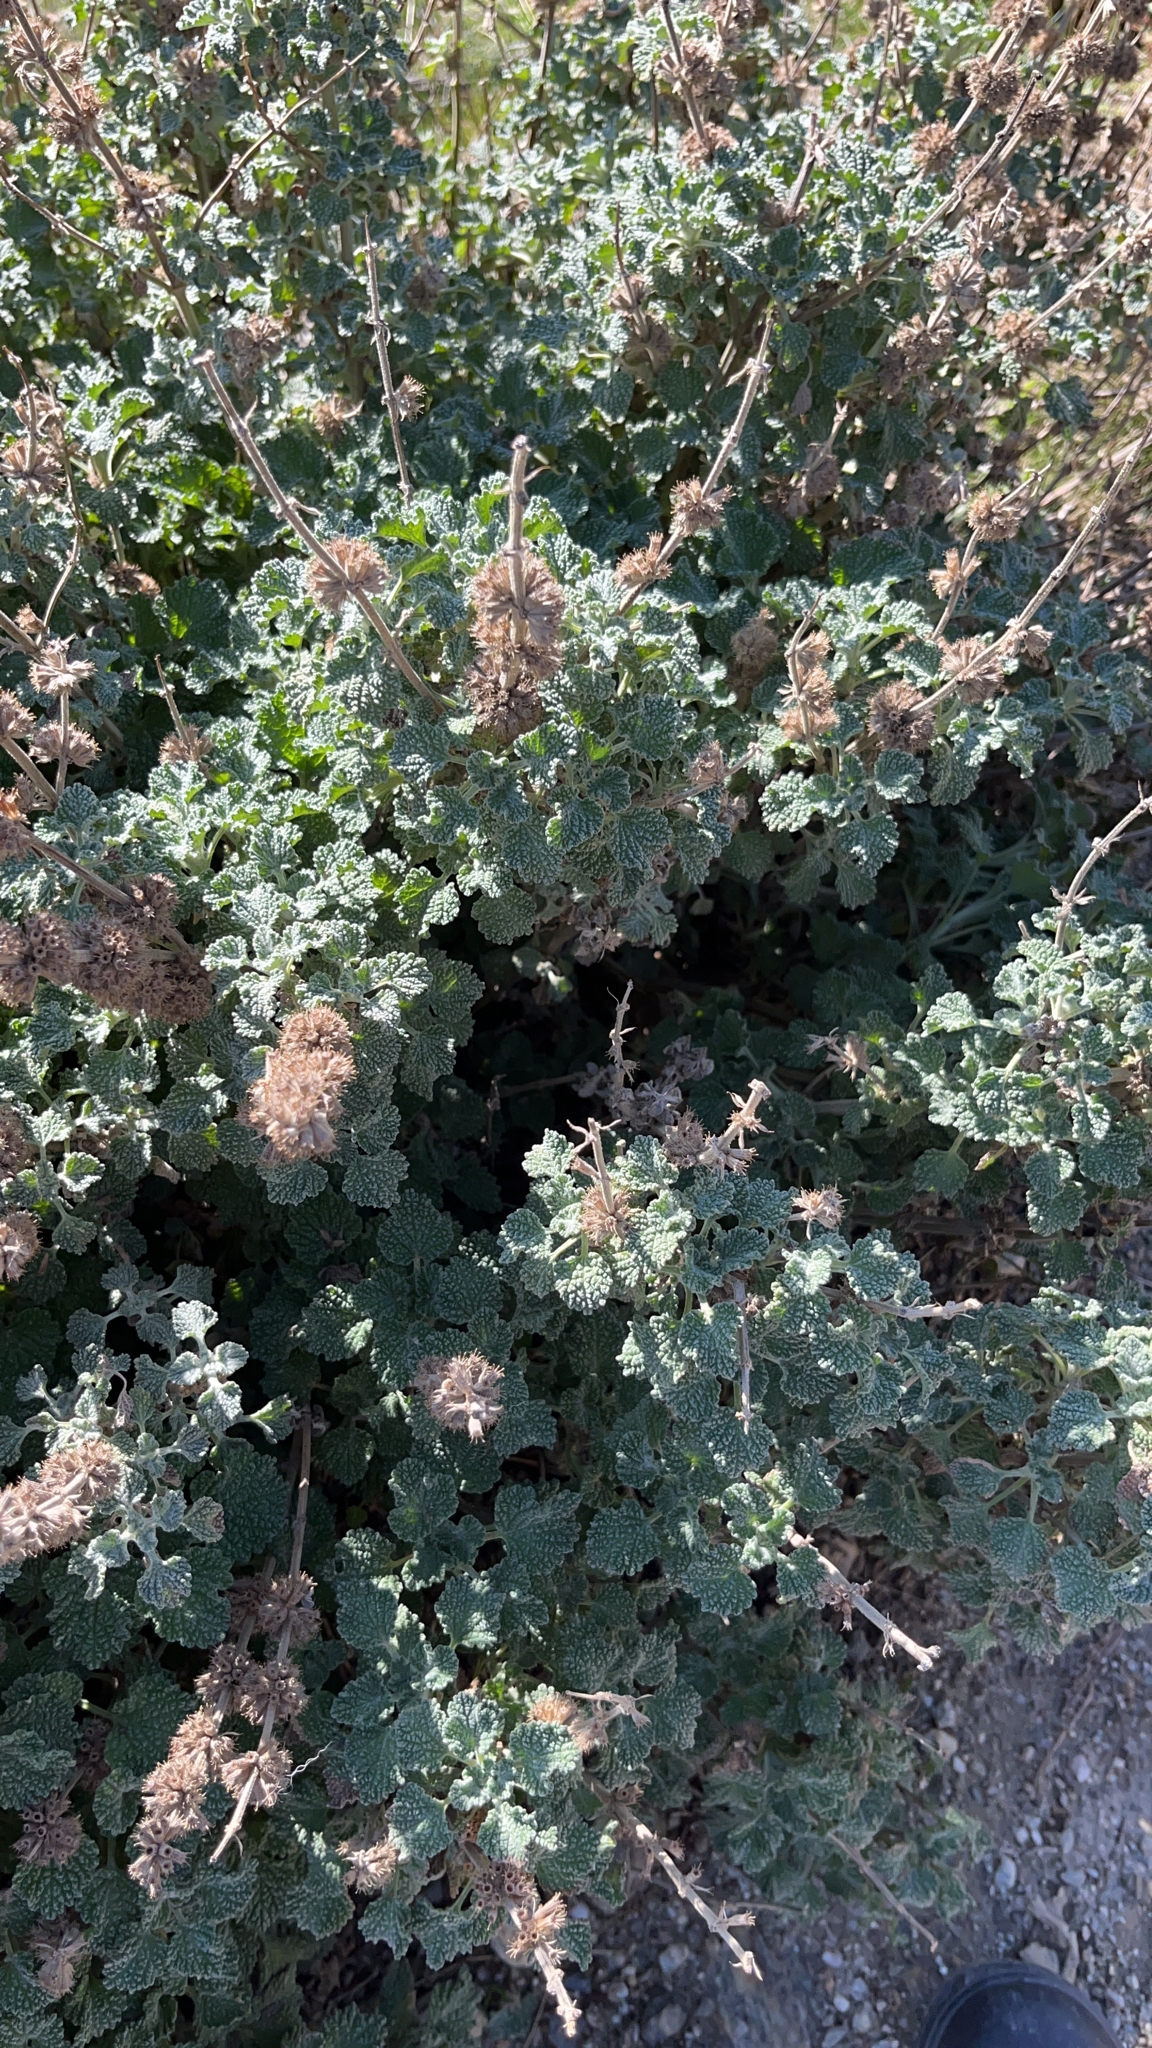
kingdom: Plantae
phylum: Tracheophyta
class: Magnoliopsida
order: Lamiales
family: Lamiaceae
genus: Marrubium
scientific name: Marrubium vulgare
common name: Horehound
